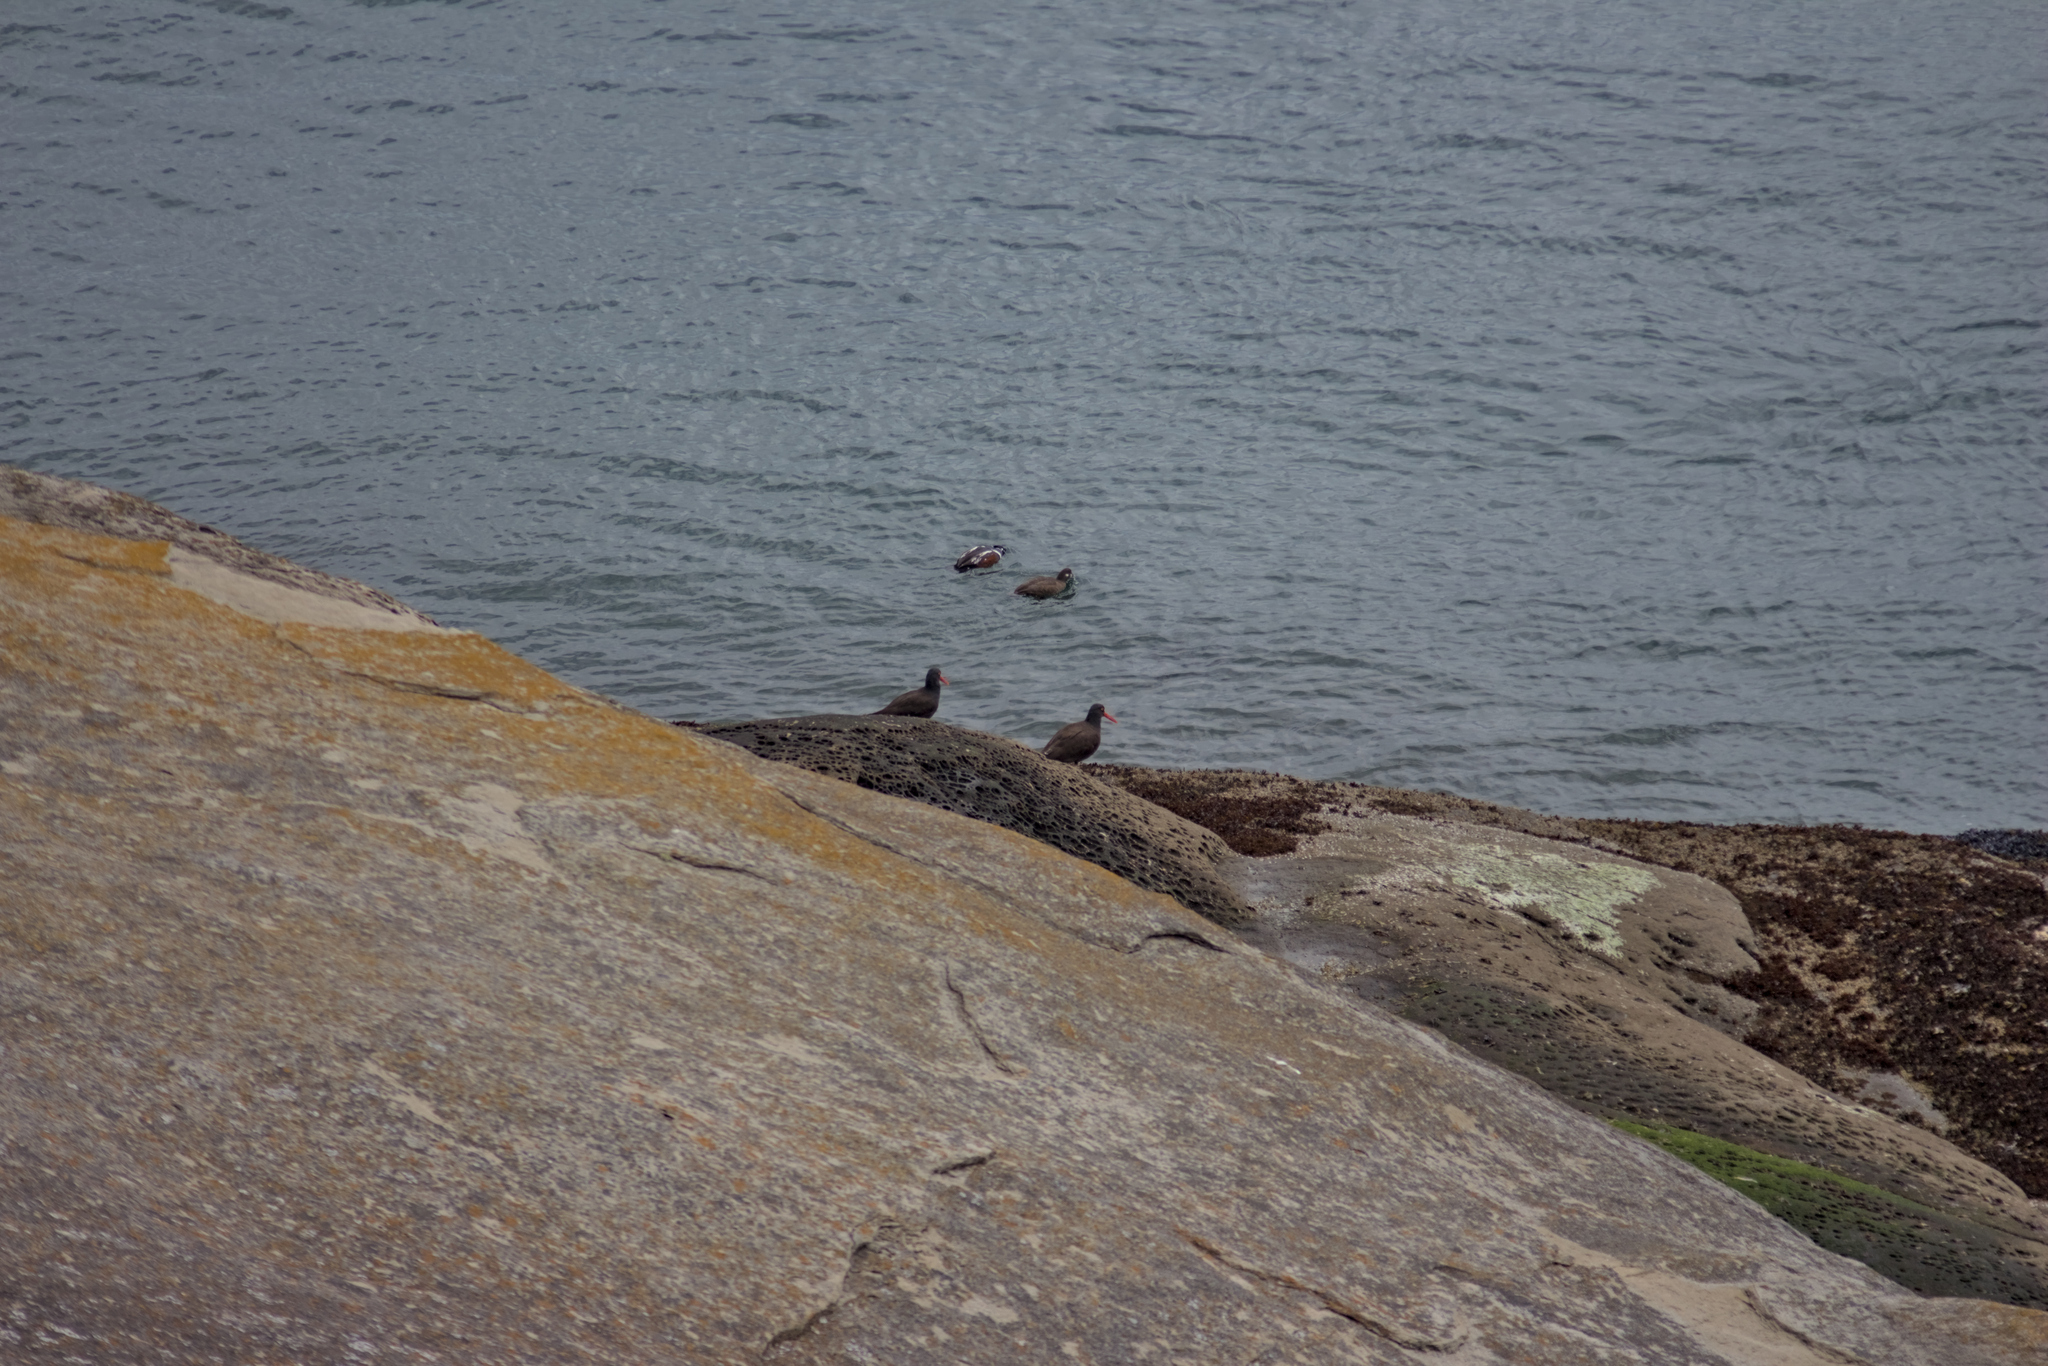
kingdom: Animalia
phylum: Chordata
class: Aves
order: Charadriiformes
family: Haematopodidae
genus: Haematopus
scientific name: Haematopus bachmani
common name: Black oystercatcher
